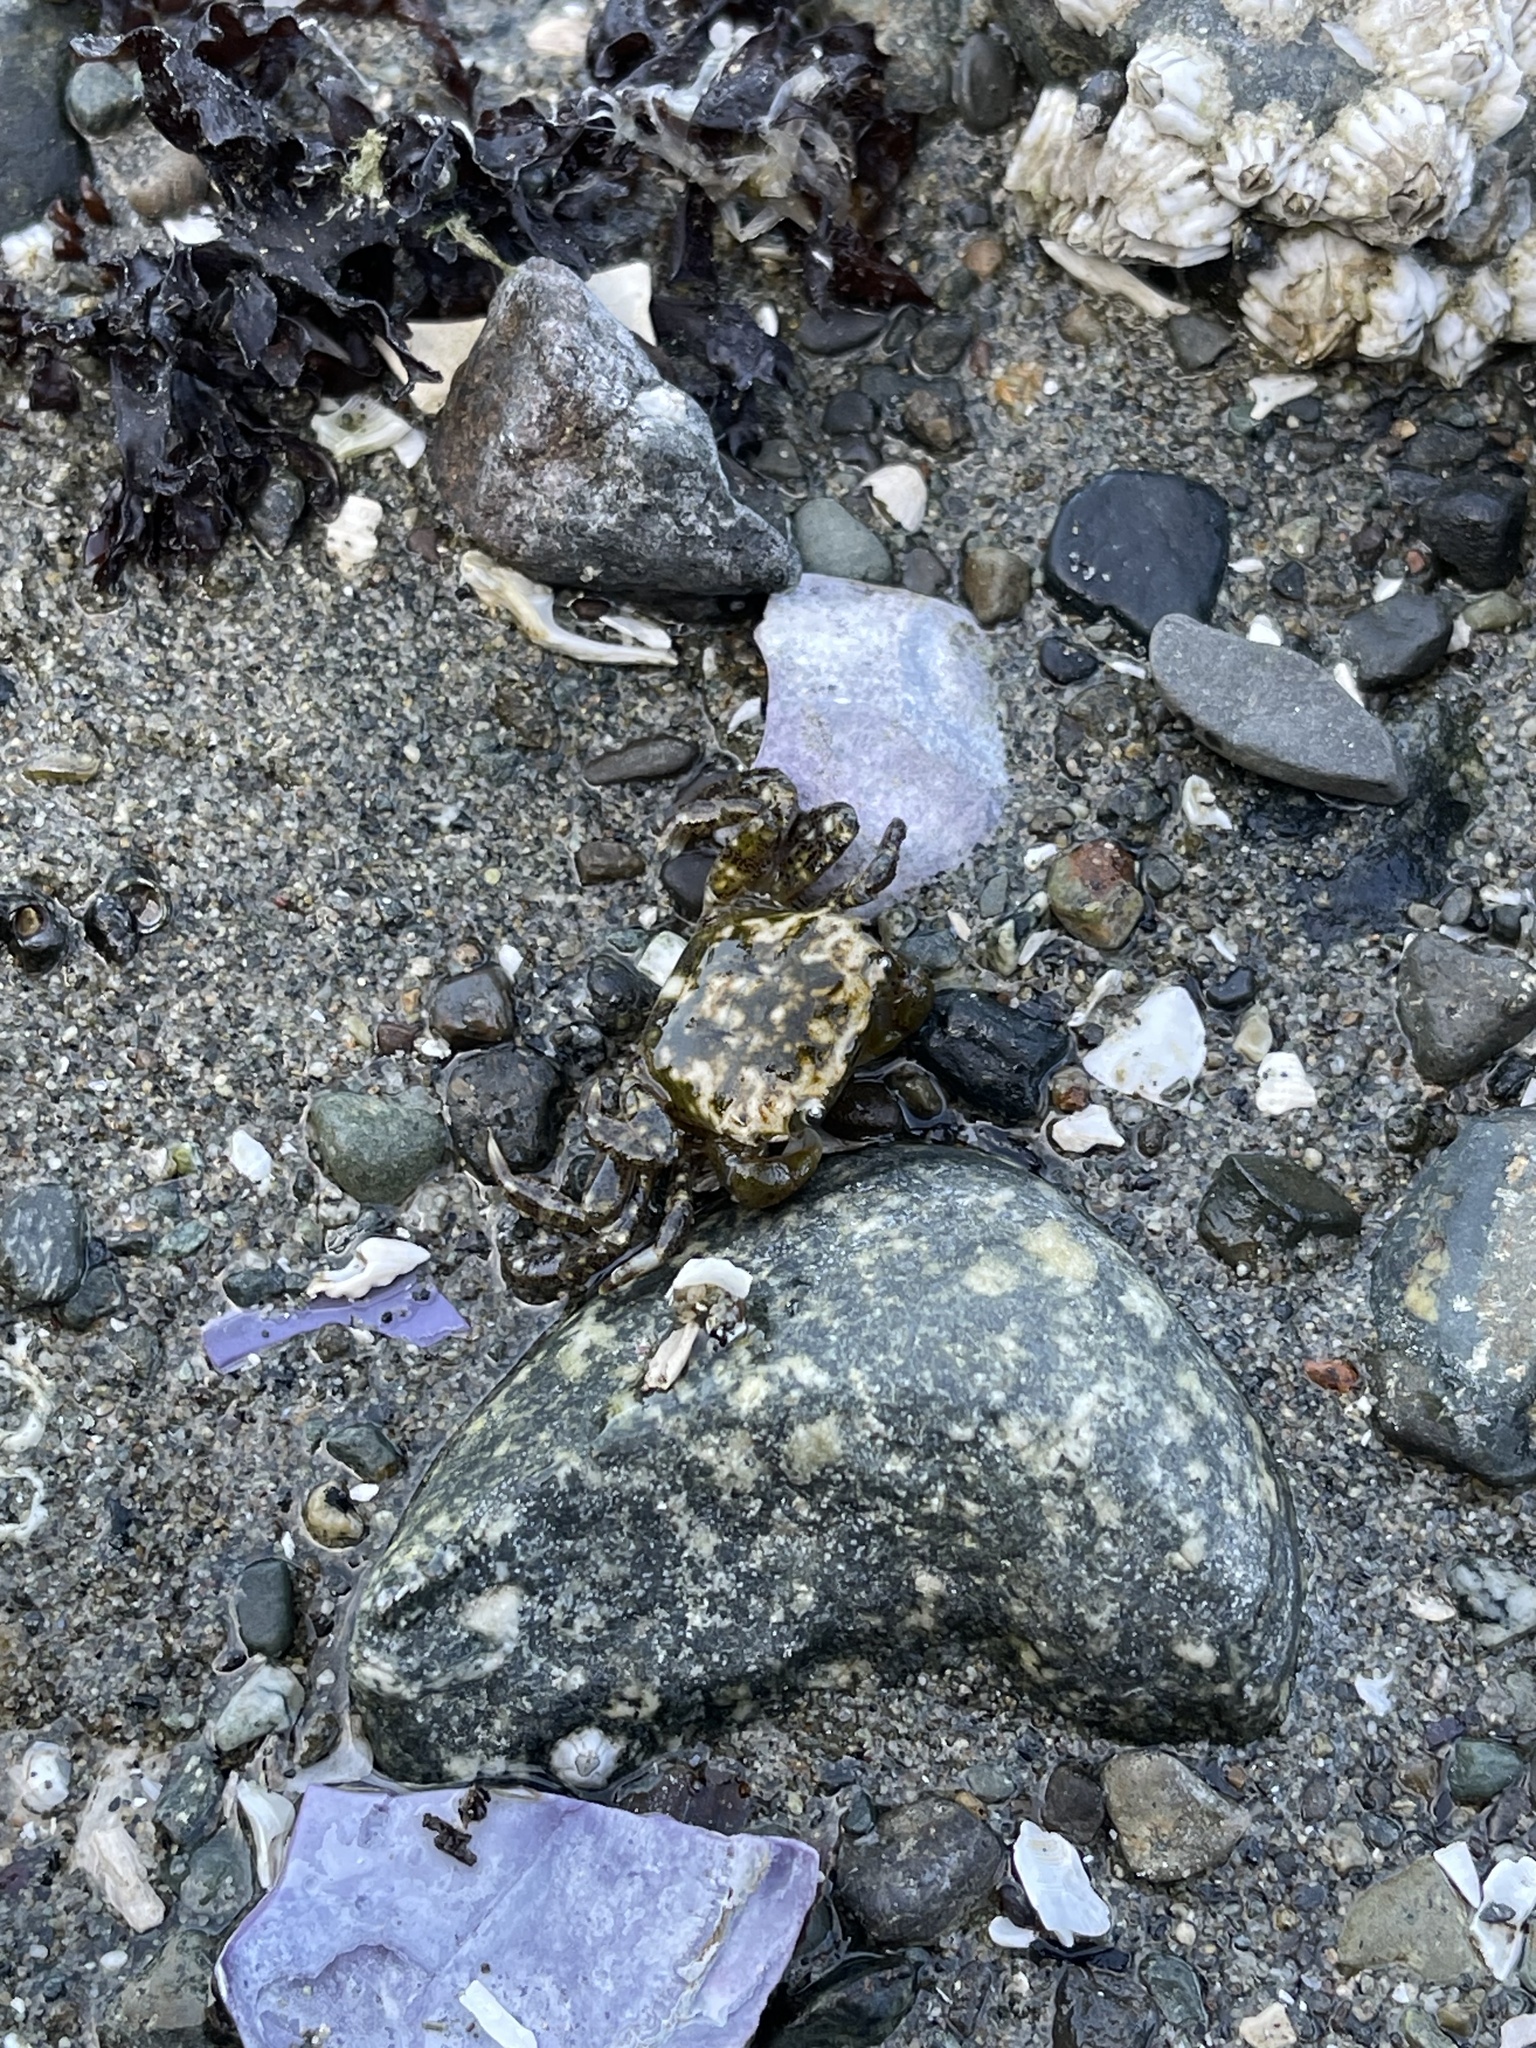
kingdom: Animalia
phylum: Arthropoda
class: Malacostraca
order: Decapoda
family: Varunidae
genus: Hemigrapsus
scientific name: Hemigrapsus oregonensis
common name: Yellow shore crab
